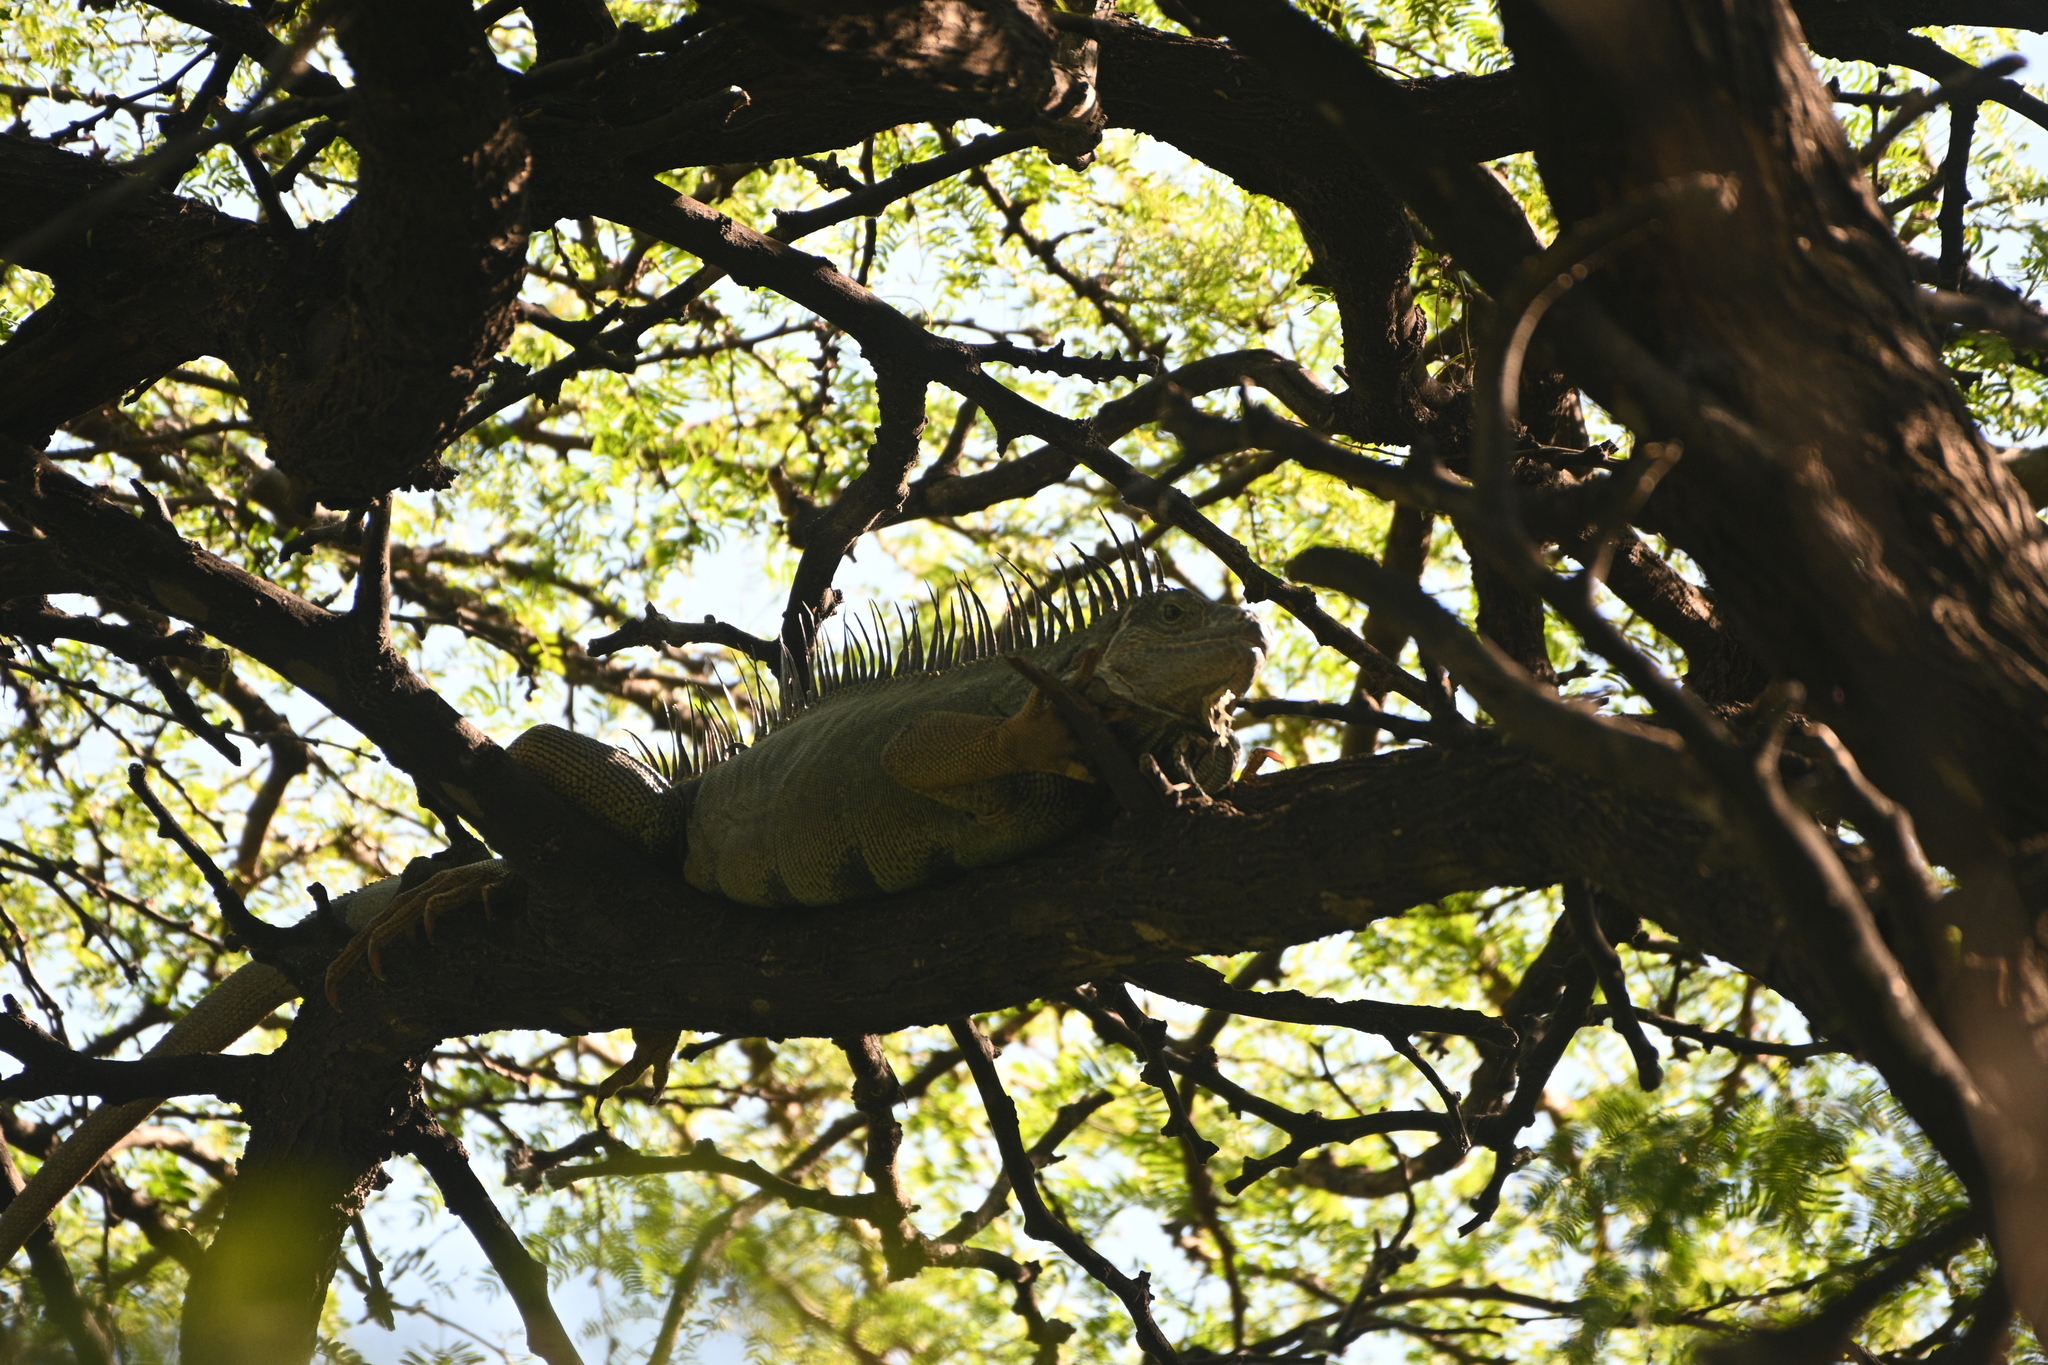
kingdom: Animalia
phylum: Chordata
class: Squamata
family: Iguanidae
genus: Iguana
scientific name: Iguana iguana
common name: Green iguana
